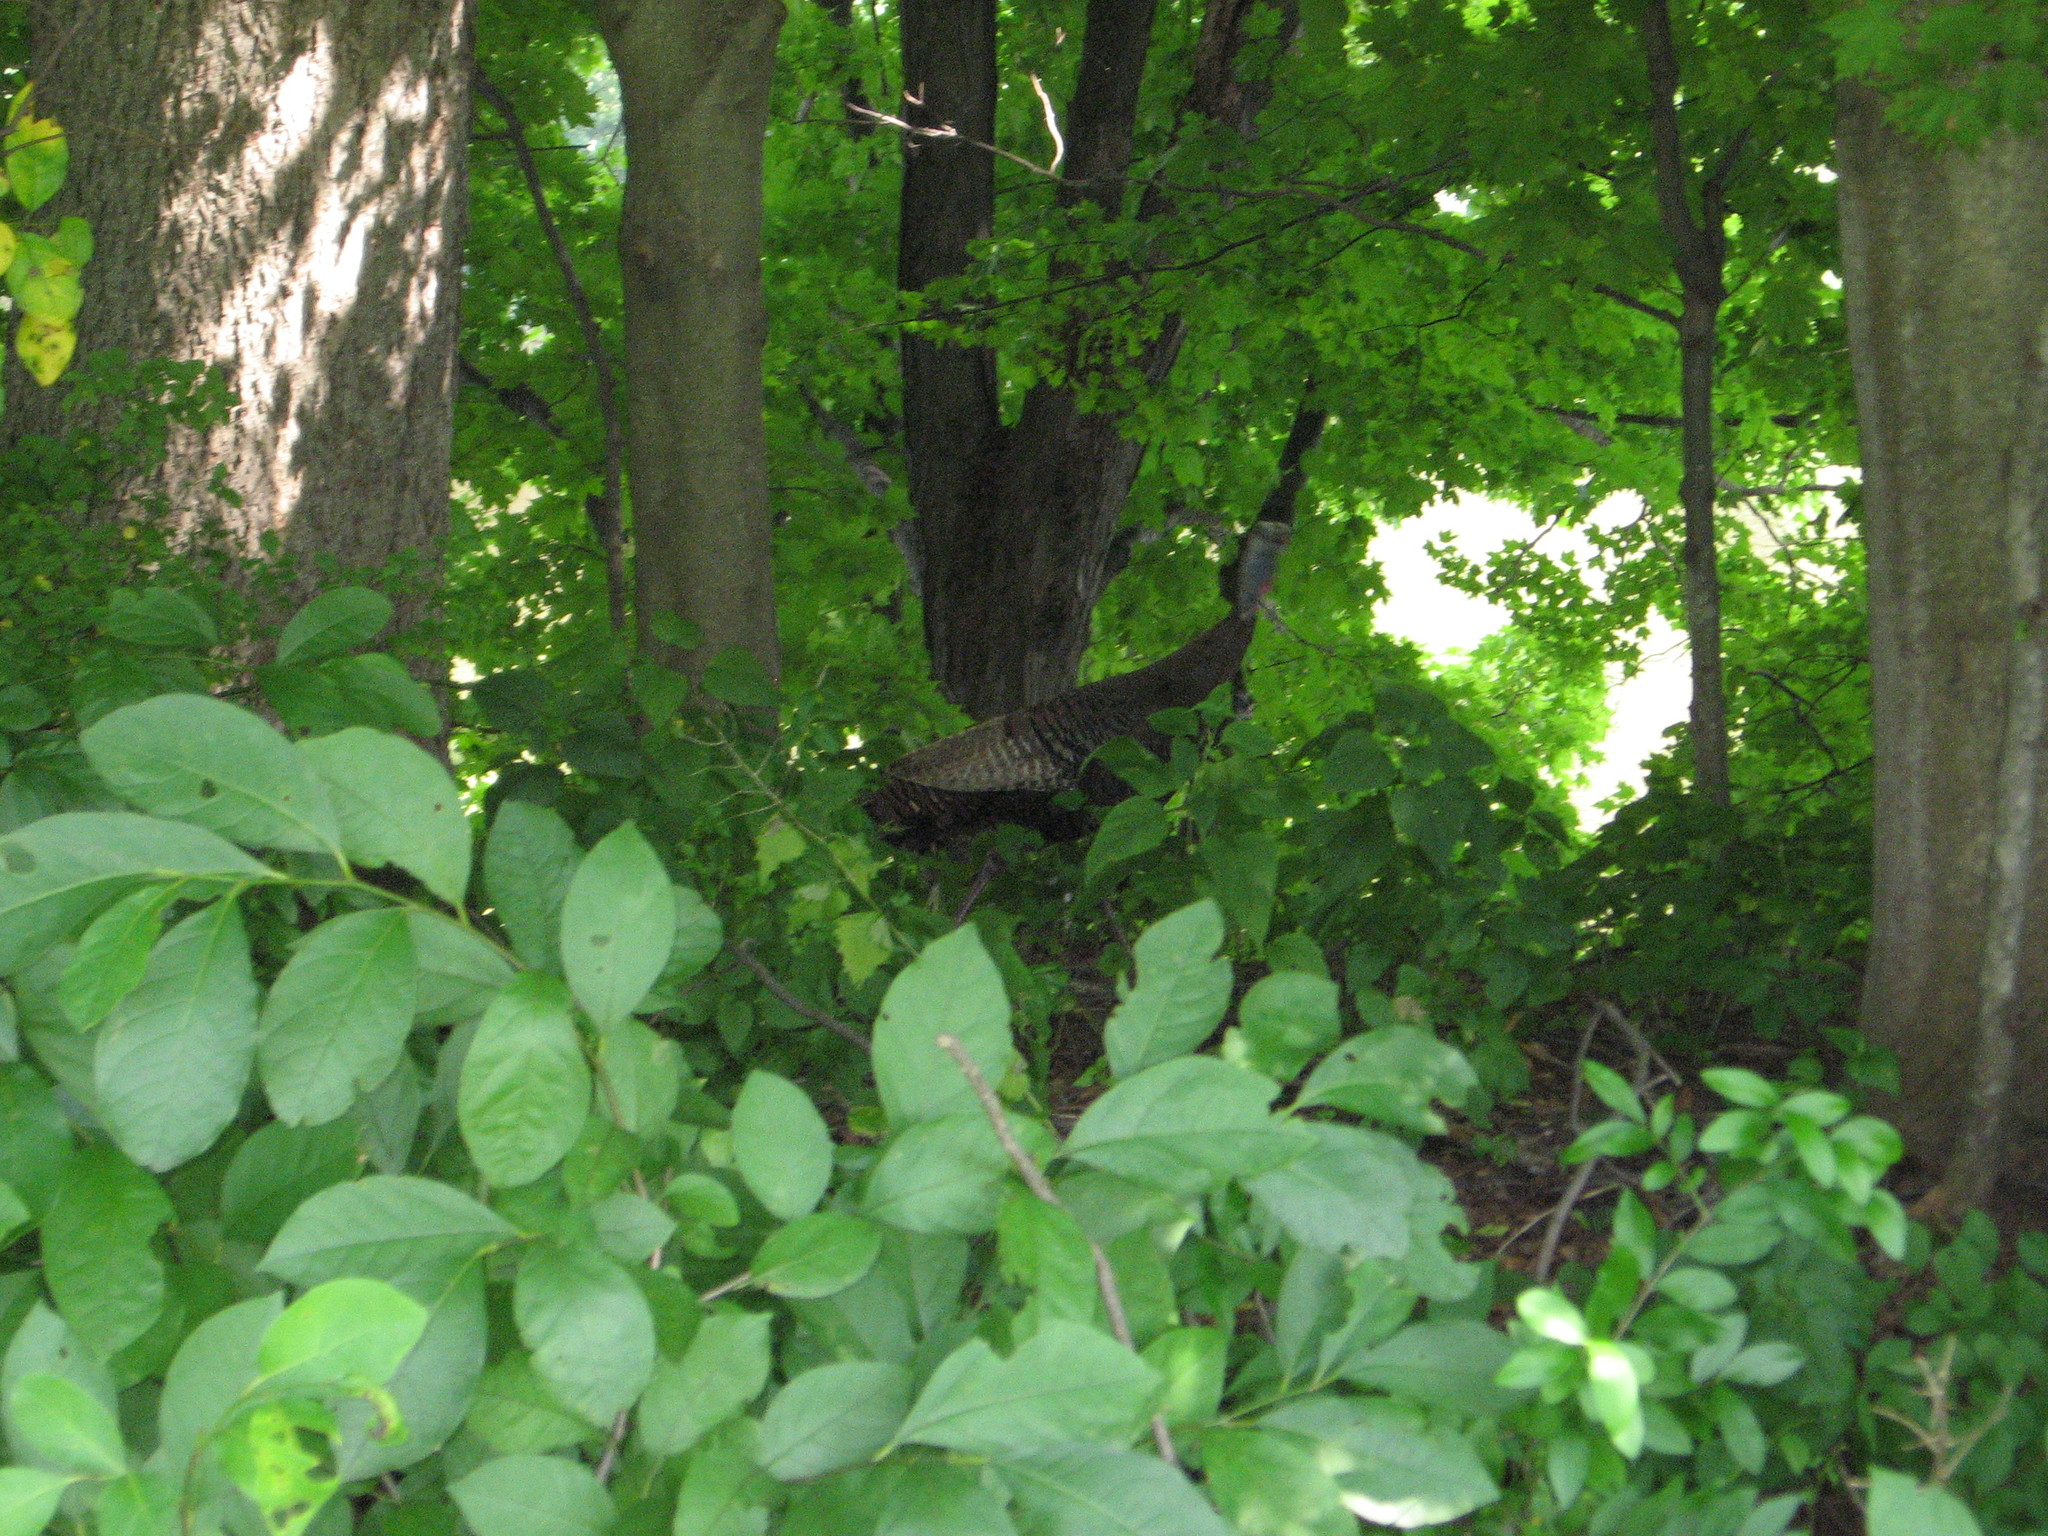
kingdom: Animalia
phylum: Chordata
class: Aves
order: Galliformes
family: Phasianidae
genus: Meleagris
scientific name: Meleagris gallopavo
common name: Wild turkey
